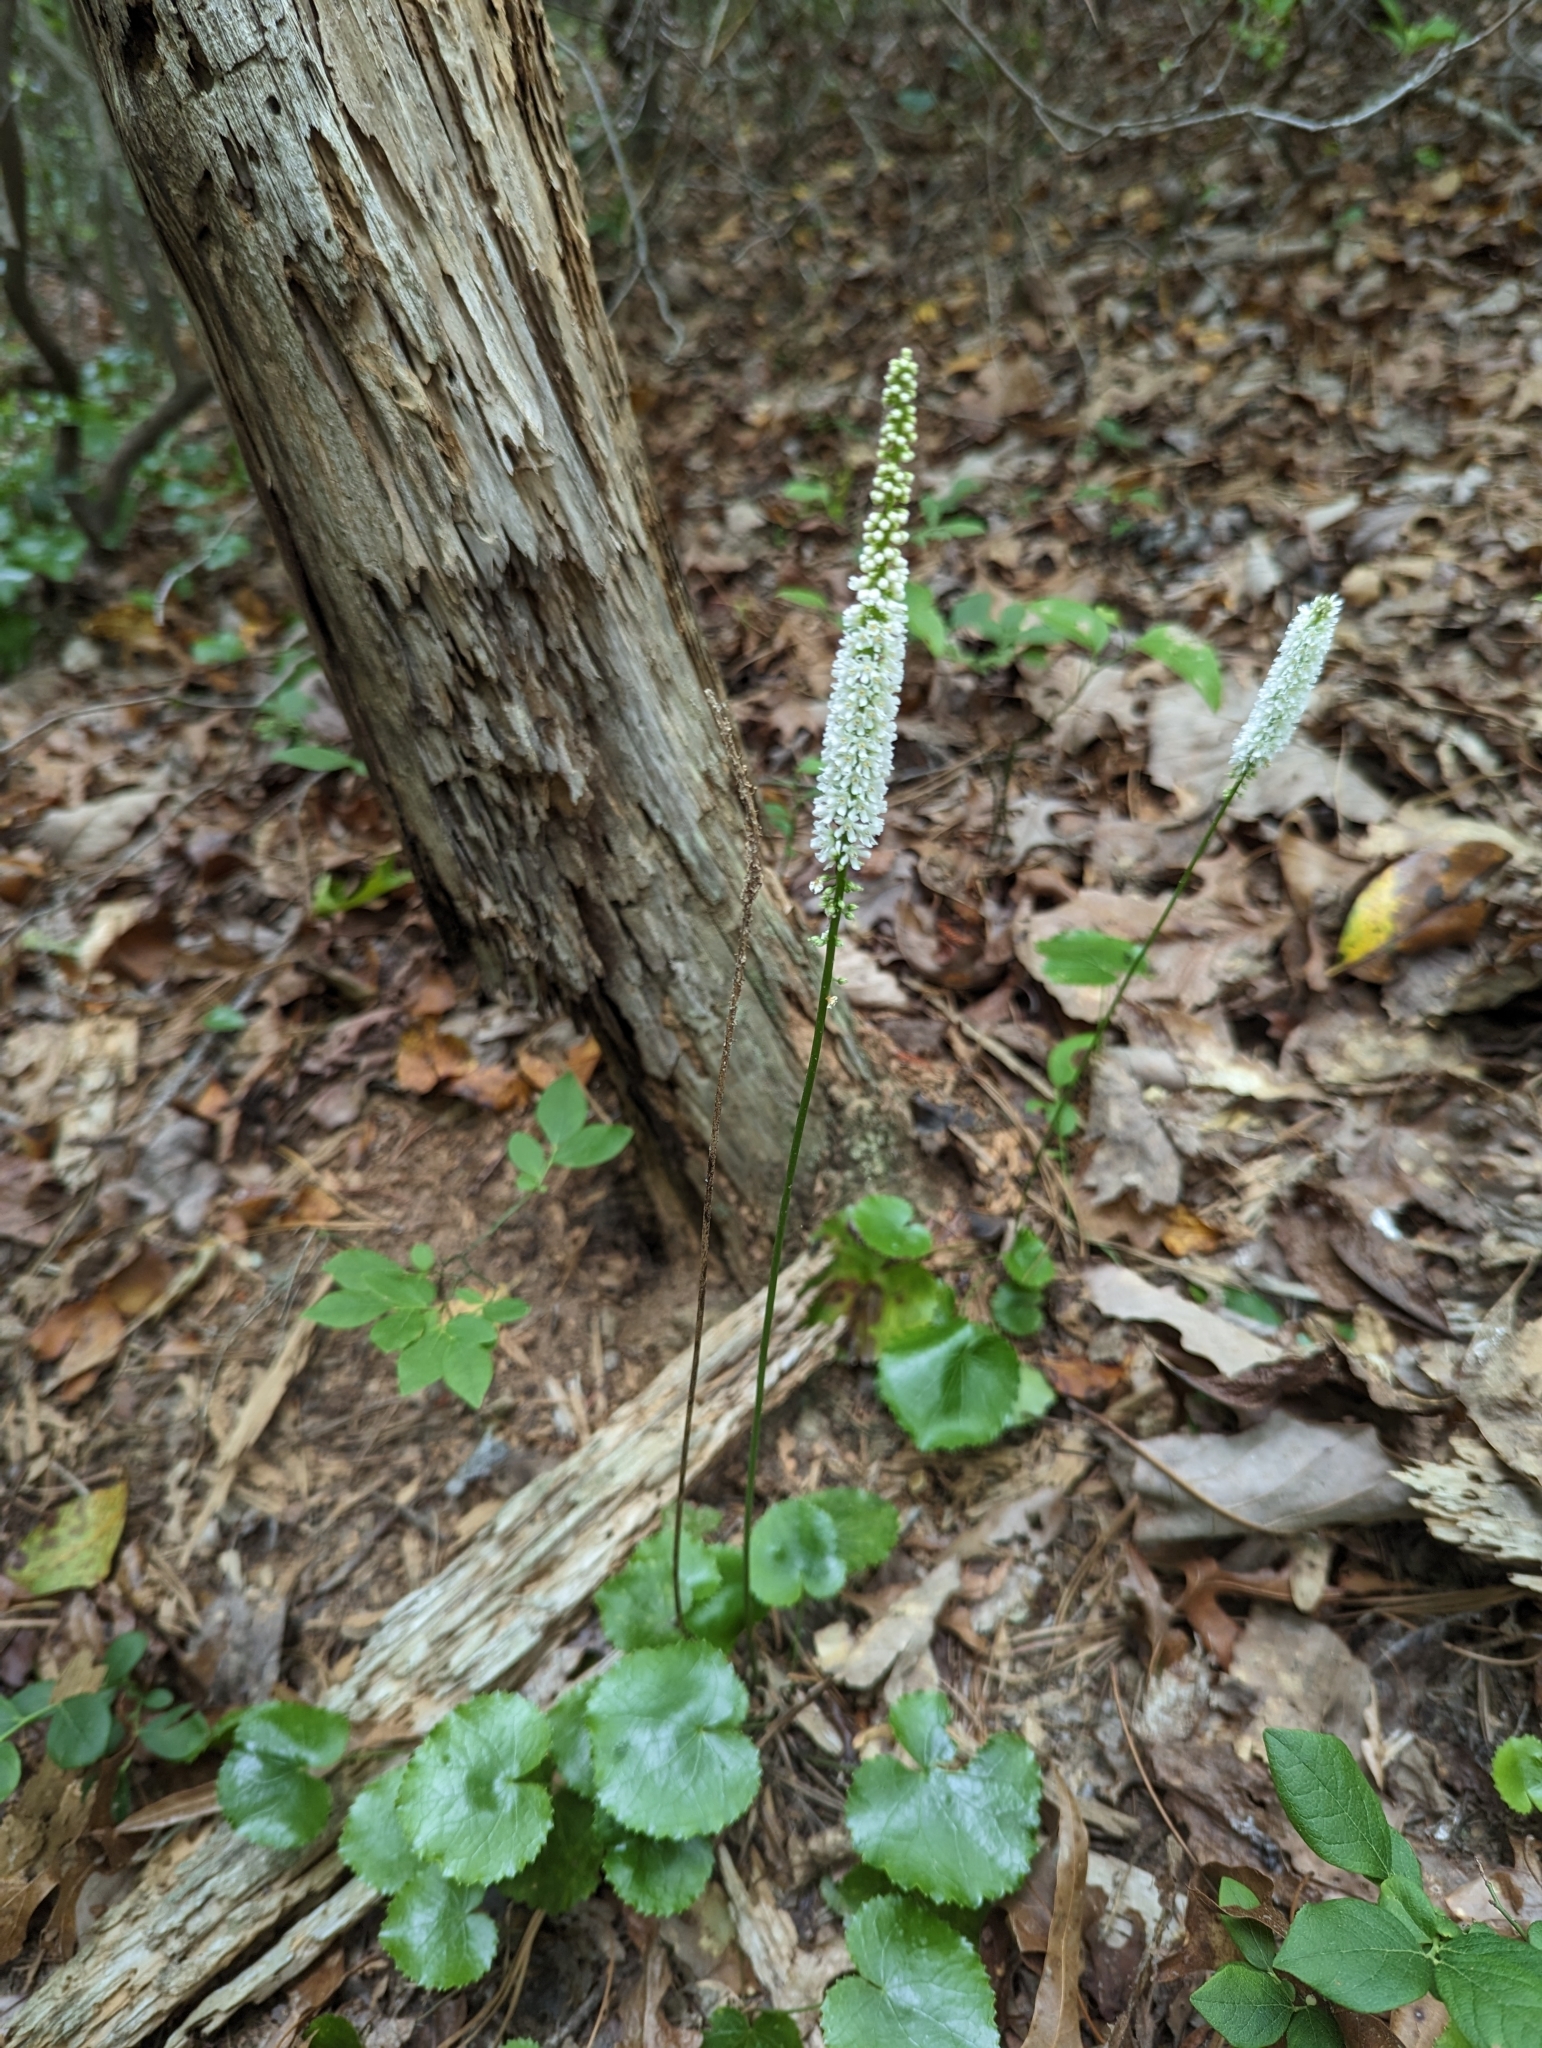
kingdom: Plantae
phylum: Tracheophyta
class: Magnoliopsida
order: Ericales
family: Diapensiaceae
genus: Galax
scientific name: Galax urceolata
